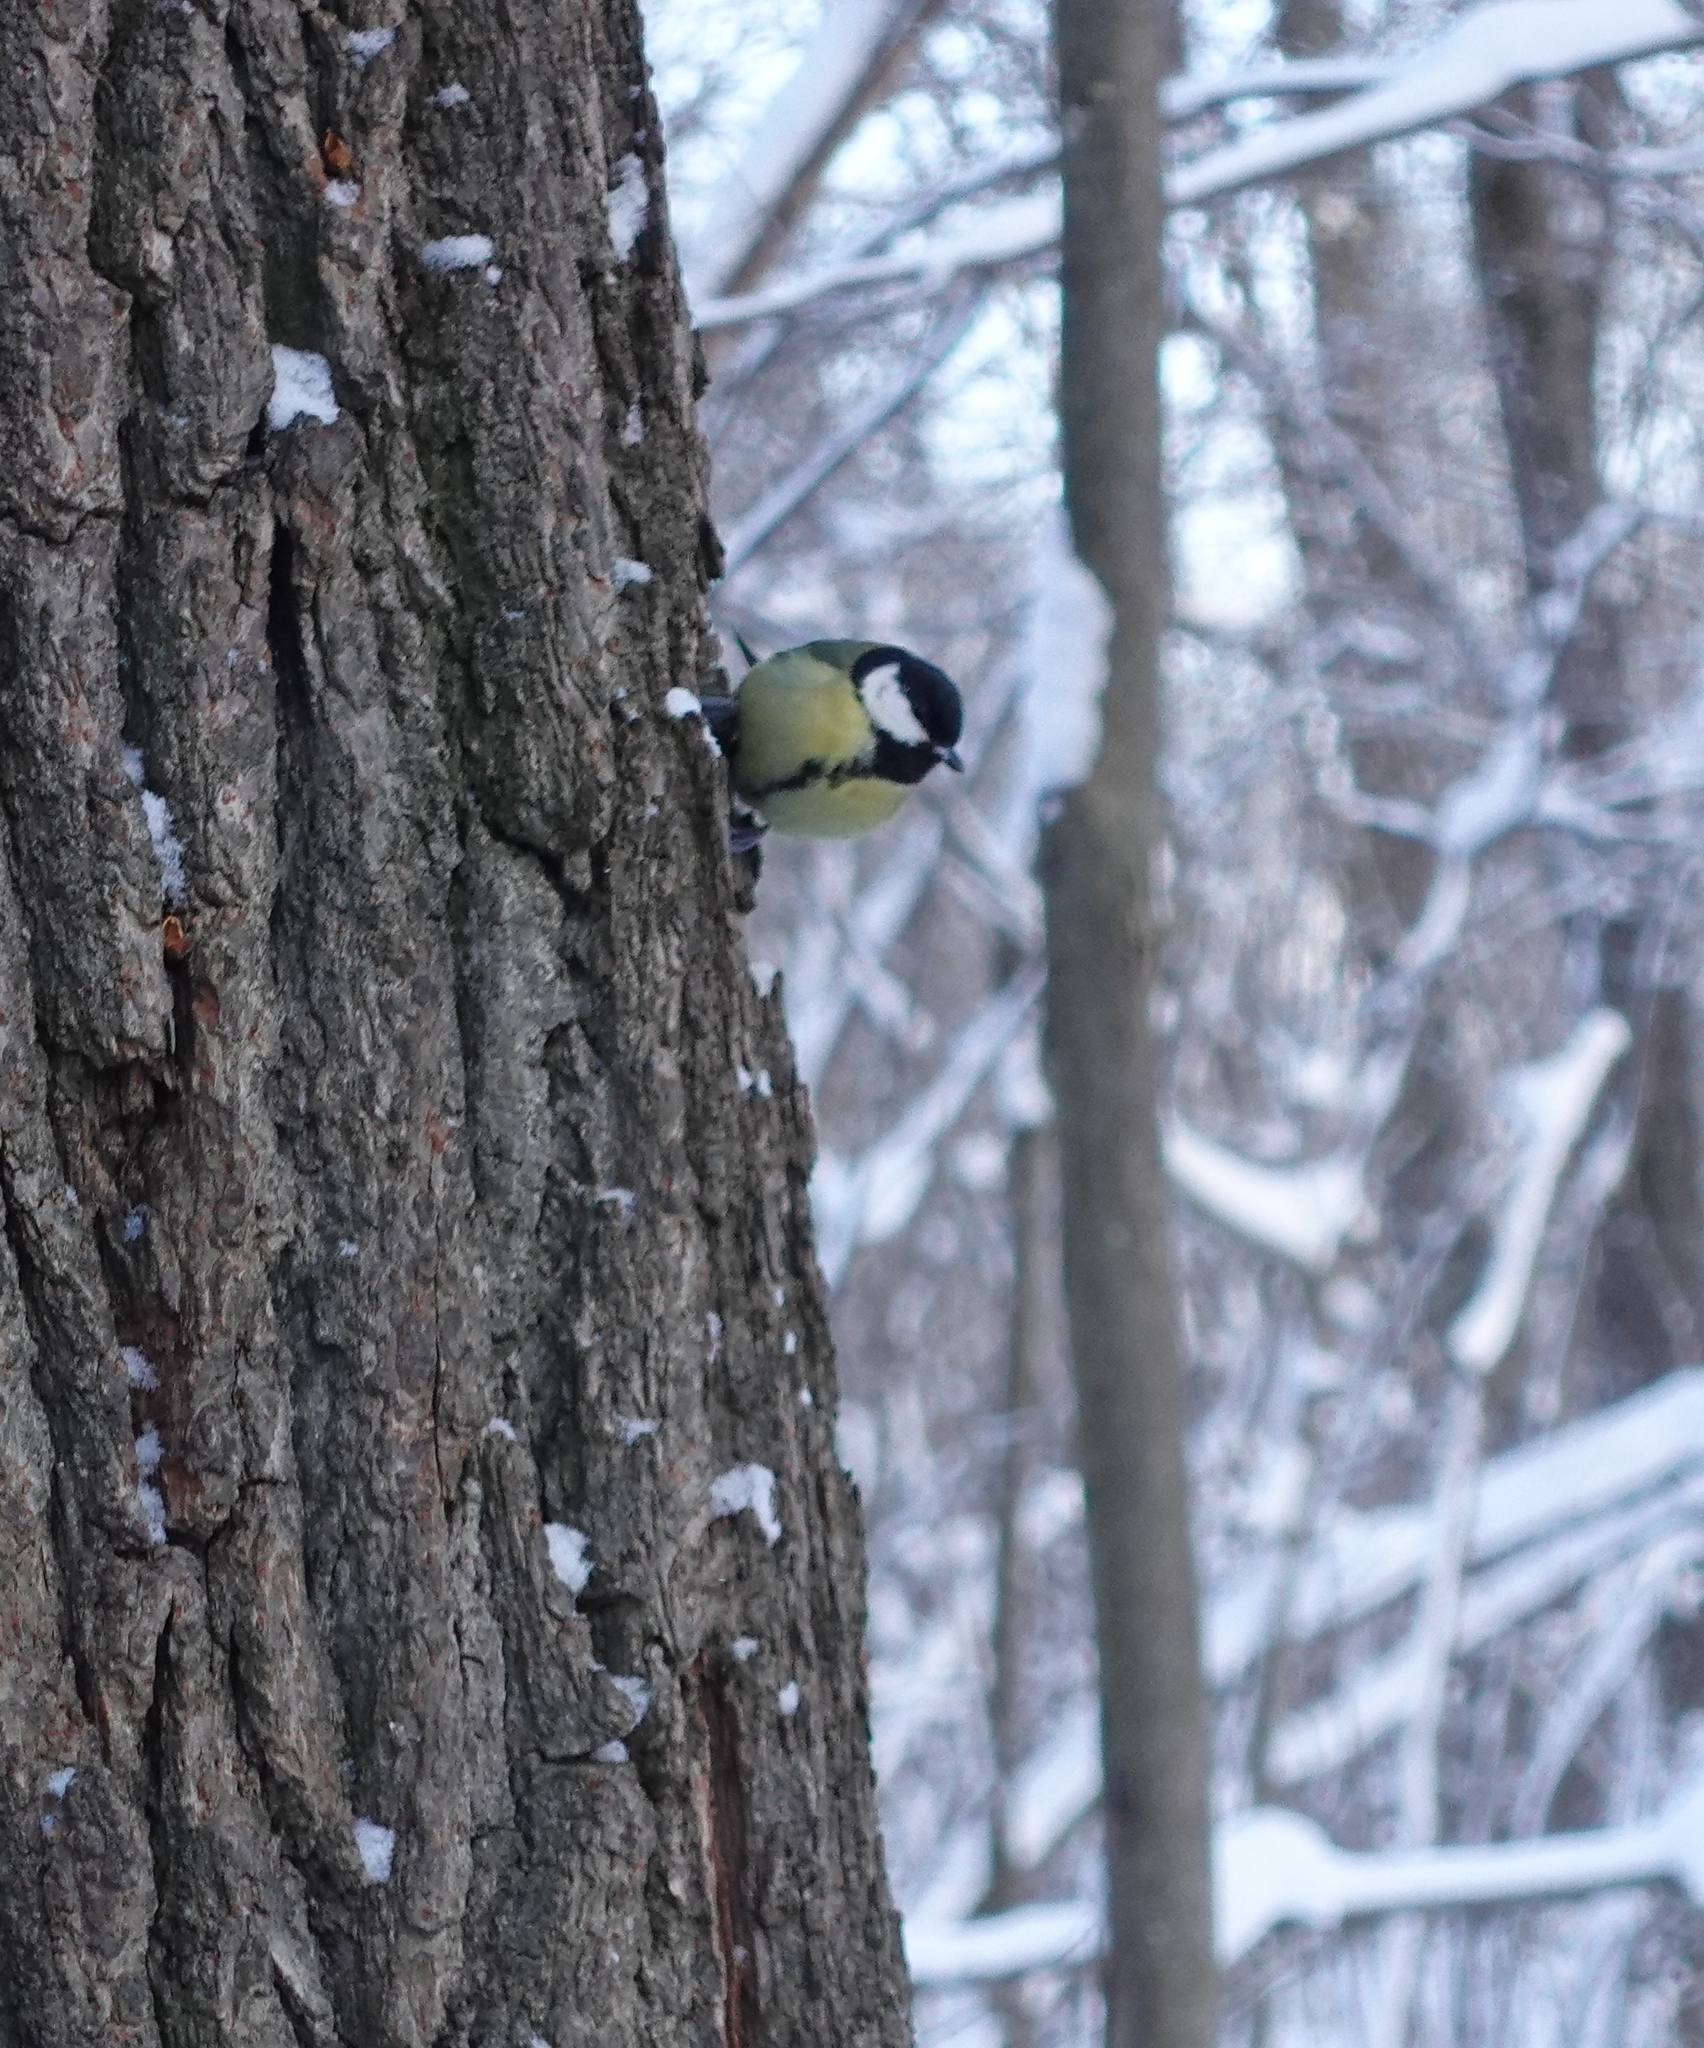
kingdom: Animalia
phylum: Chordata
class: Aves
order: Passeriformes
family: Paridae
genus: Parus
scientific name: Parus major
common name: Great tit
